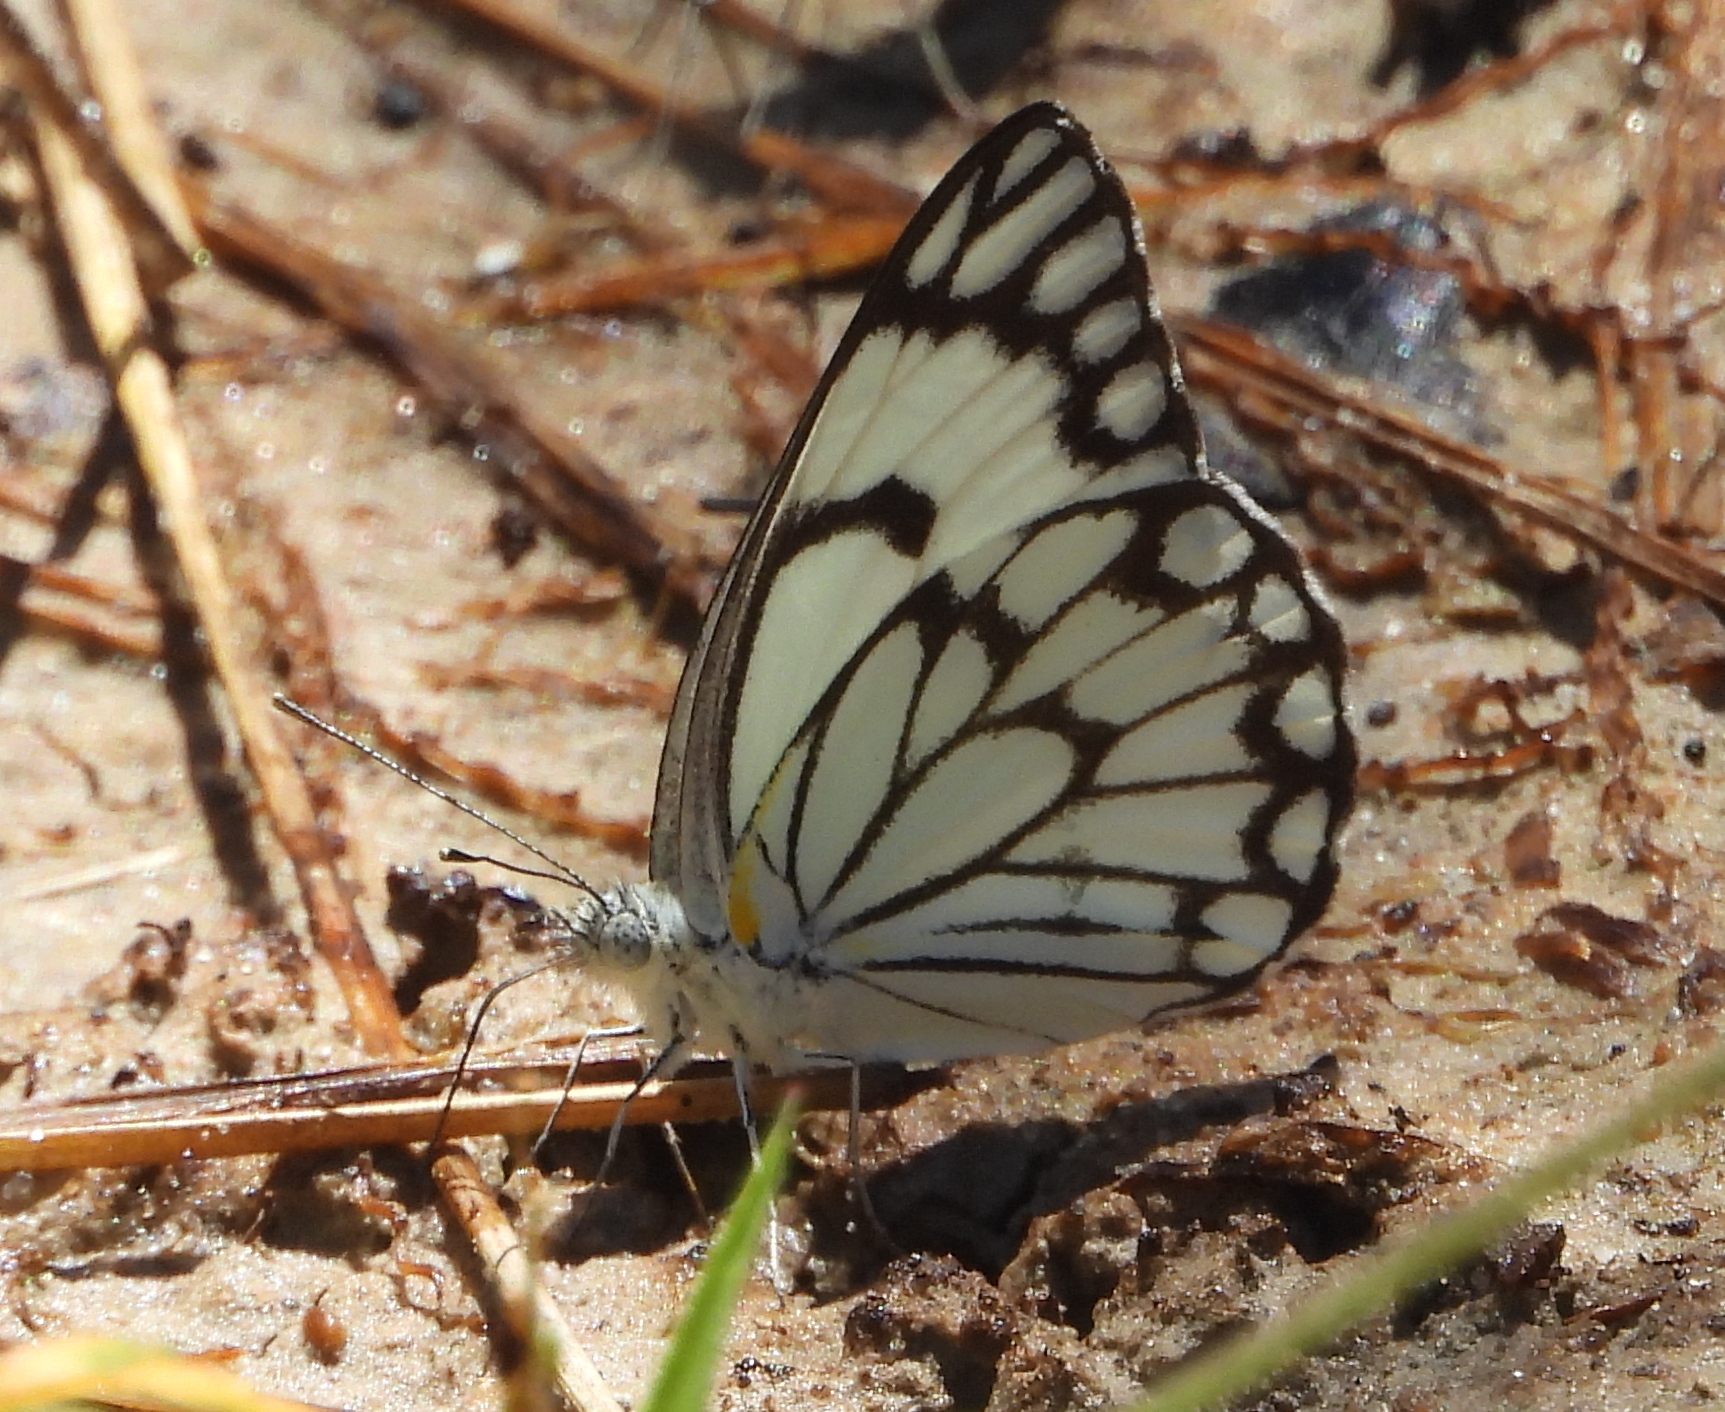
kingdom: Animalia
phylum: Arthropoda
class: Insecta
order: Lepidoptera
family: Pieridae
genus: Belenois
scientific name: Belenois aurota
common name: Brown-veined white
